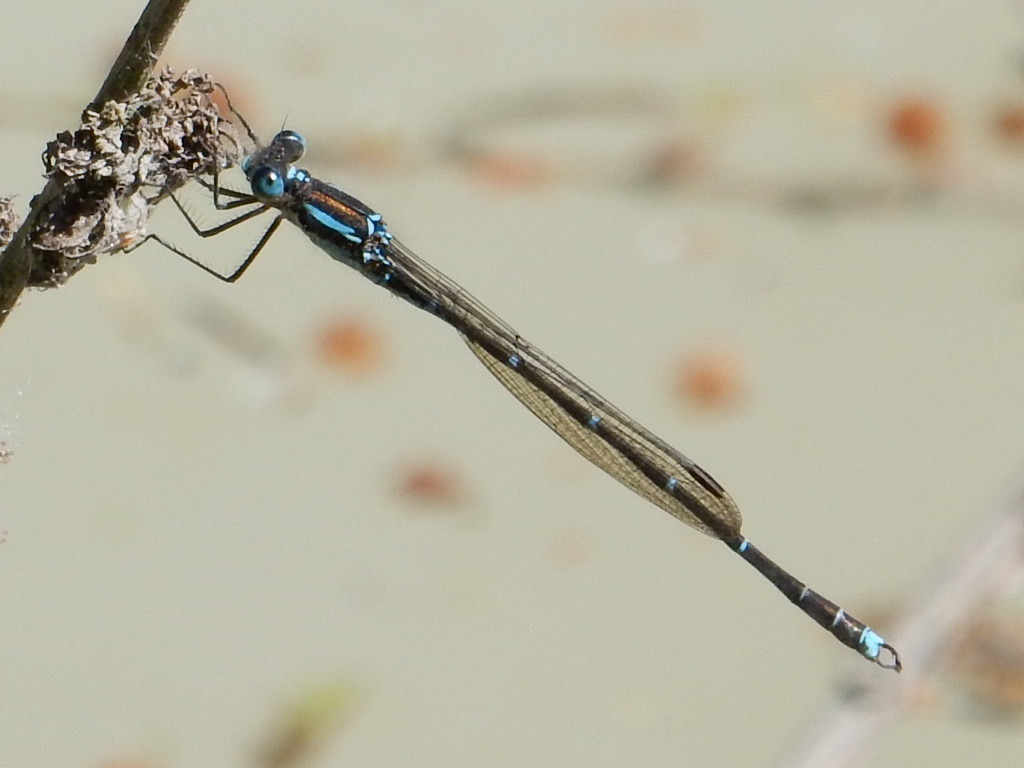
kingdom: Animalia
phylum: Arthropoda
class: Insecta
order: Odonata
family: Lestidae
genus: Austrolestes
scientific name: Austrolestes colensonis
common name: Blue damselfly
